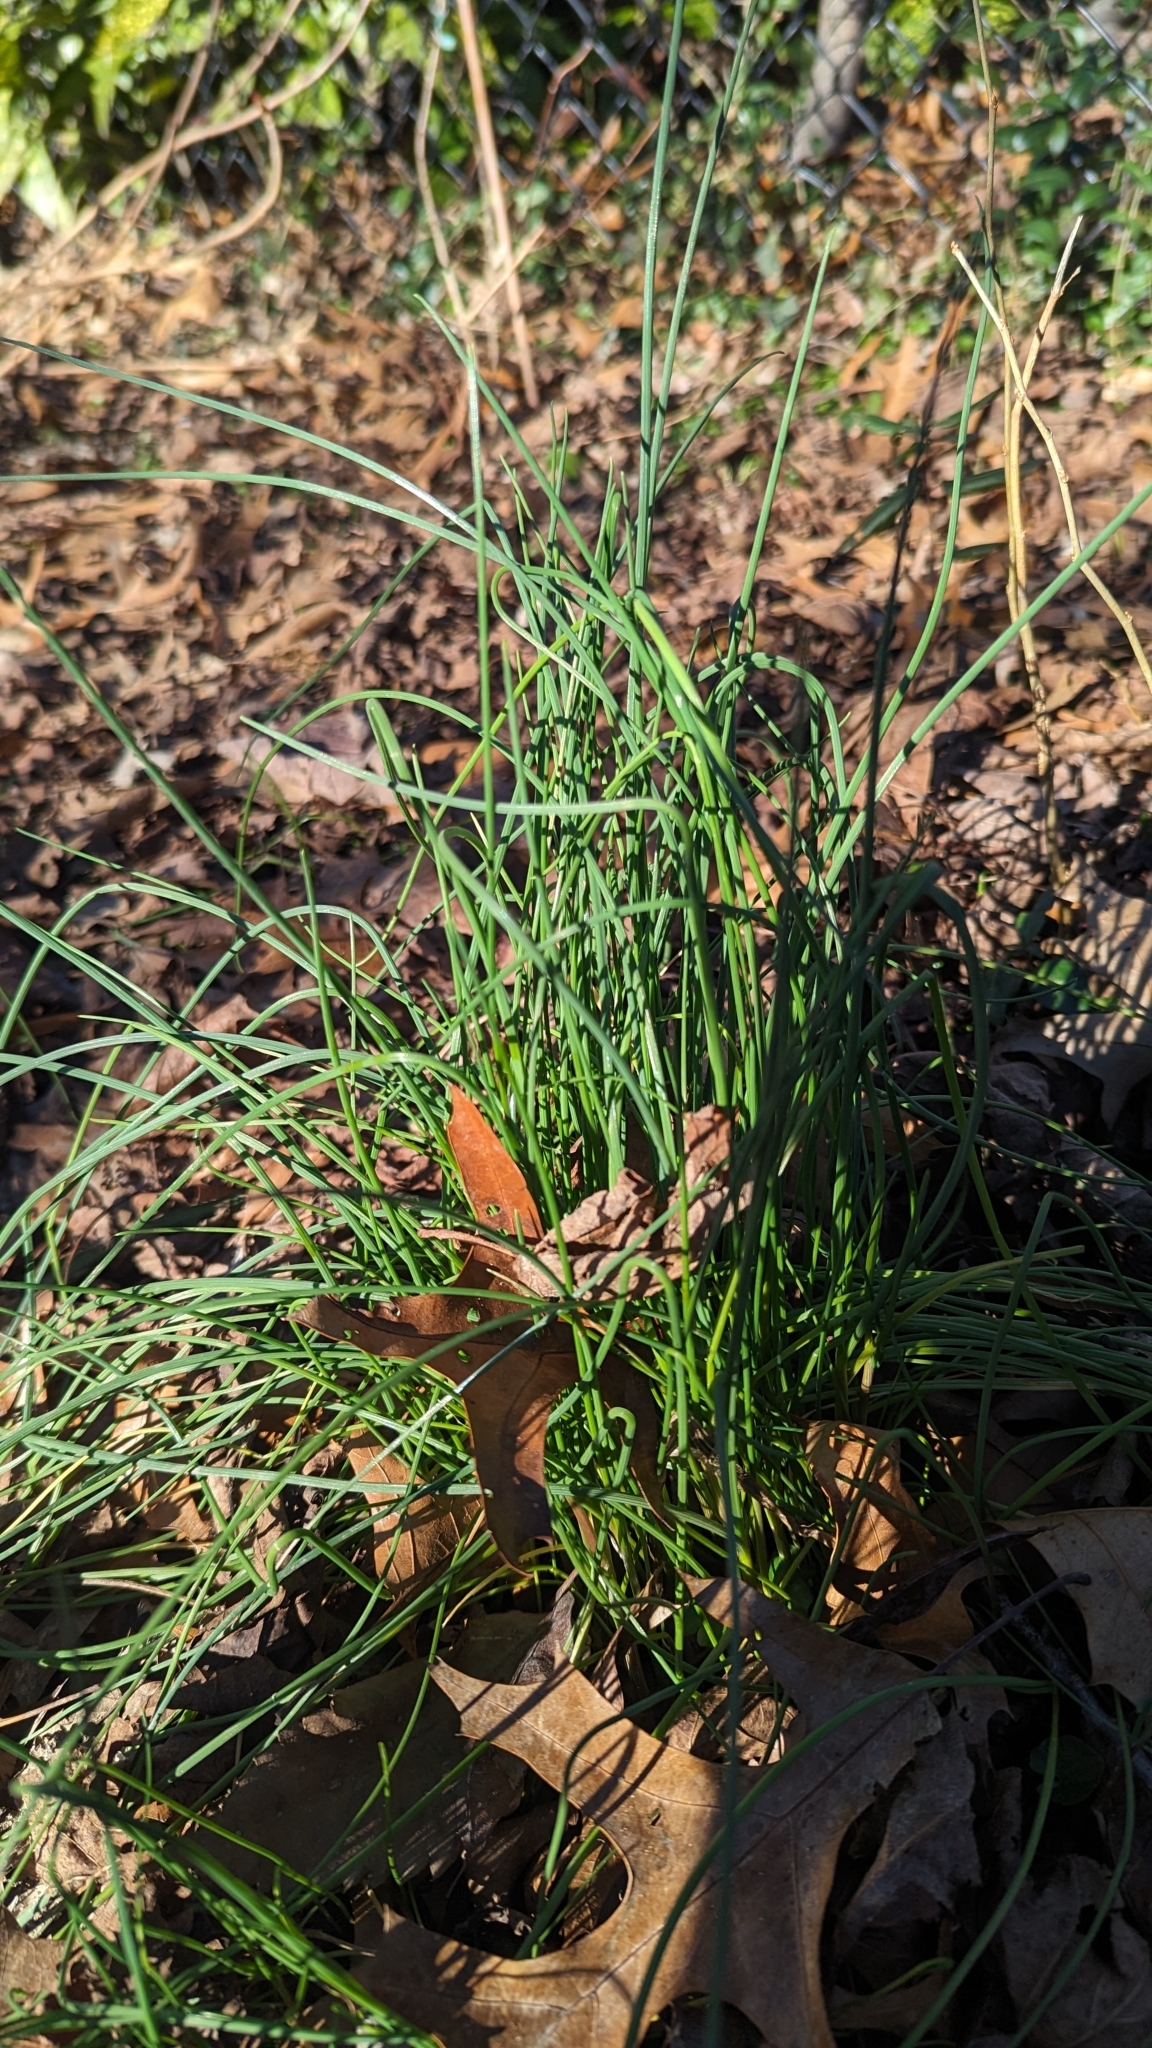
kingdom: Plantae
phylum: Tracheophyta
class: Liliopsida
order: Asparagales
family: Amaryllidaceae
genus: Allium
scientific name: Allium vineale
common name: Crow garlic
